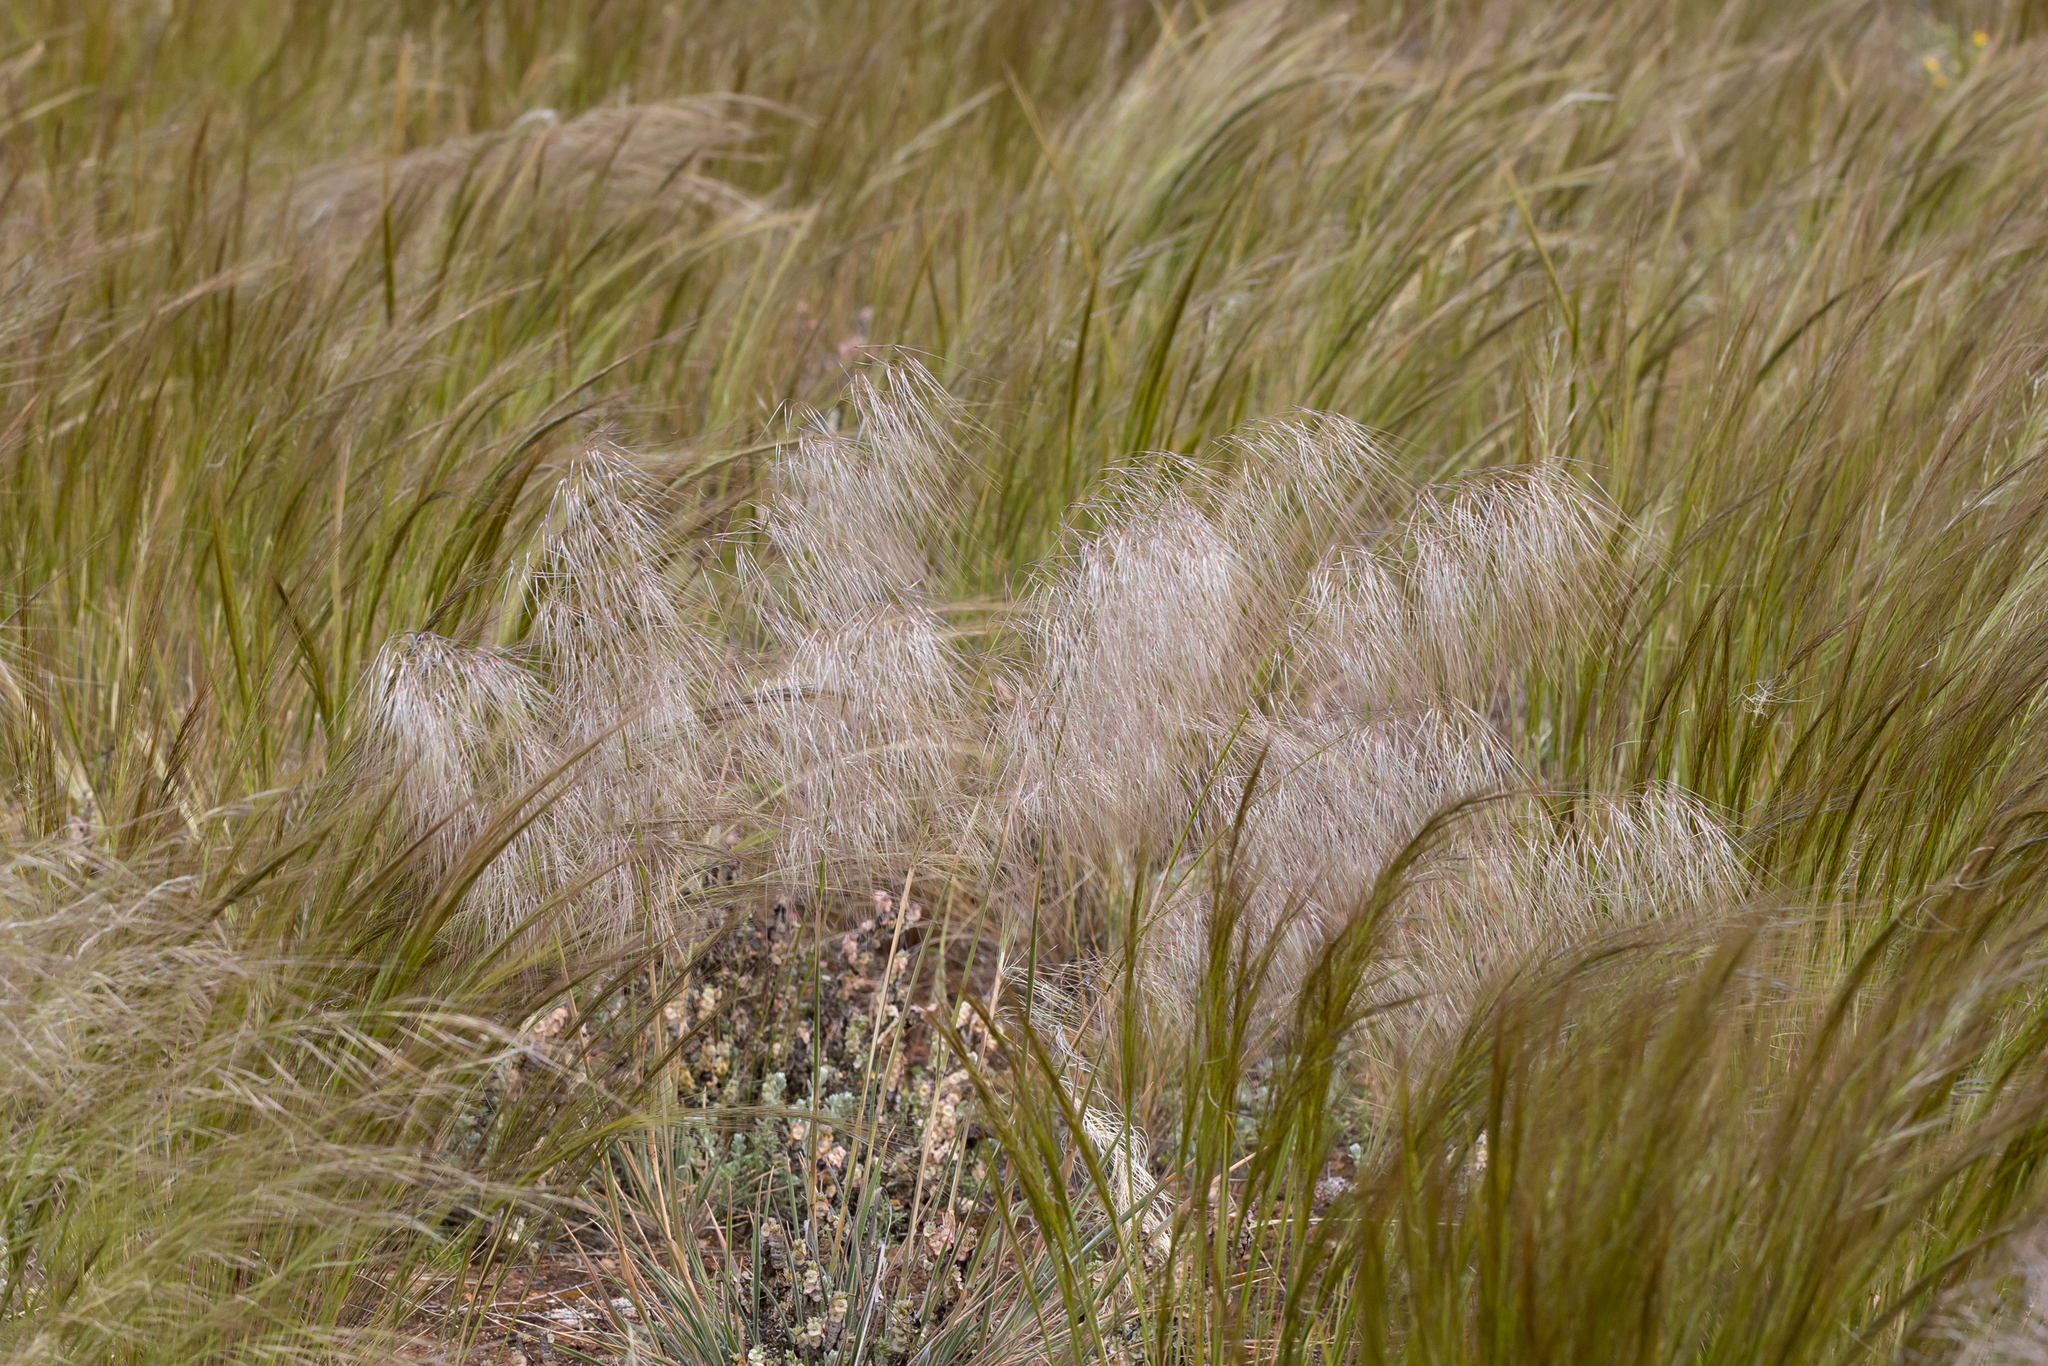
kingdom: Plantae
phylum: Tracheophyta
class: Liliopsida
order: Poales
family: Poaceae
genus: Austrostipa
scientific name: Austrostipa drummondii
